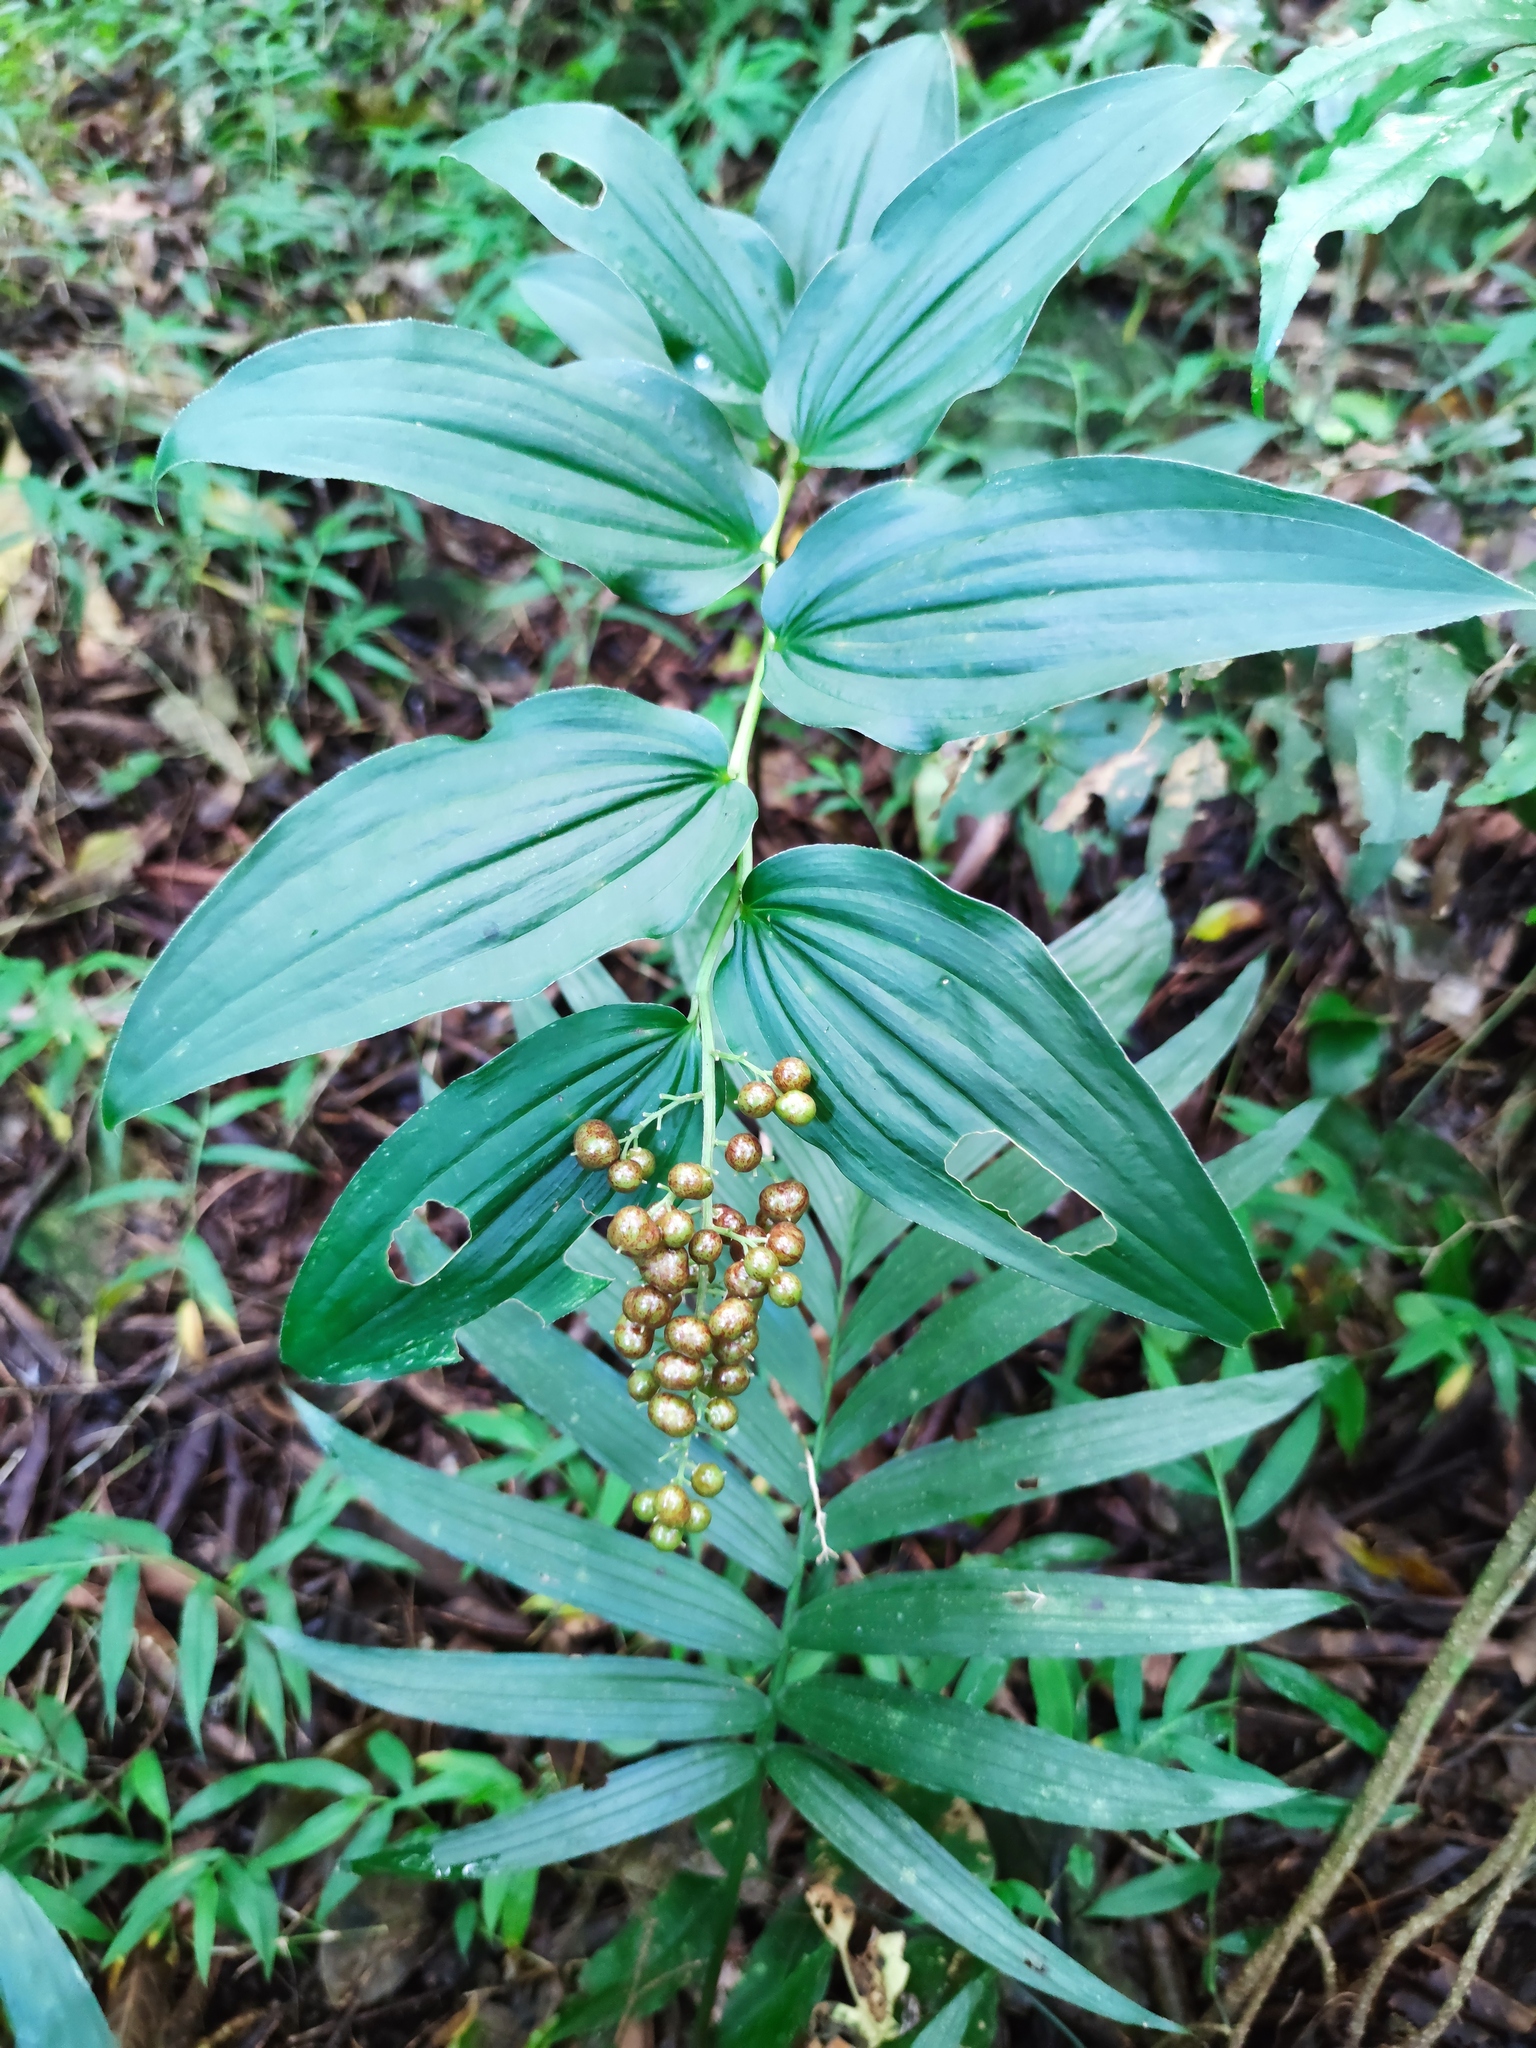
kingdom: Plantae
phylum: Tracheophyta
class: Liliopsida
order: Asparagales
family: Asparagaceae
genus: Maianthemum
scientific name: Maianthemum gigas
